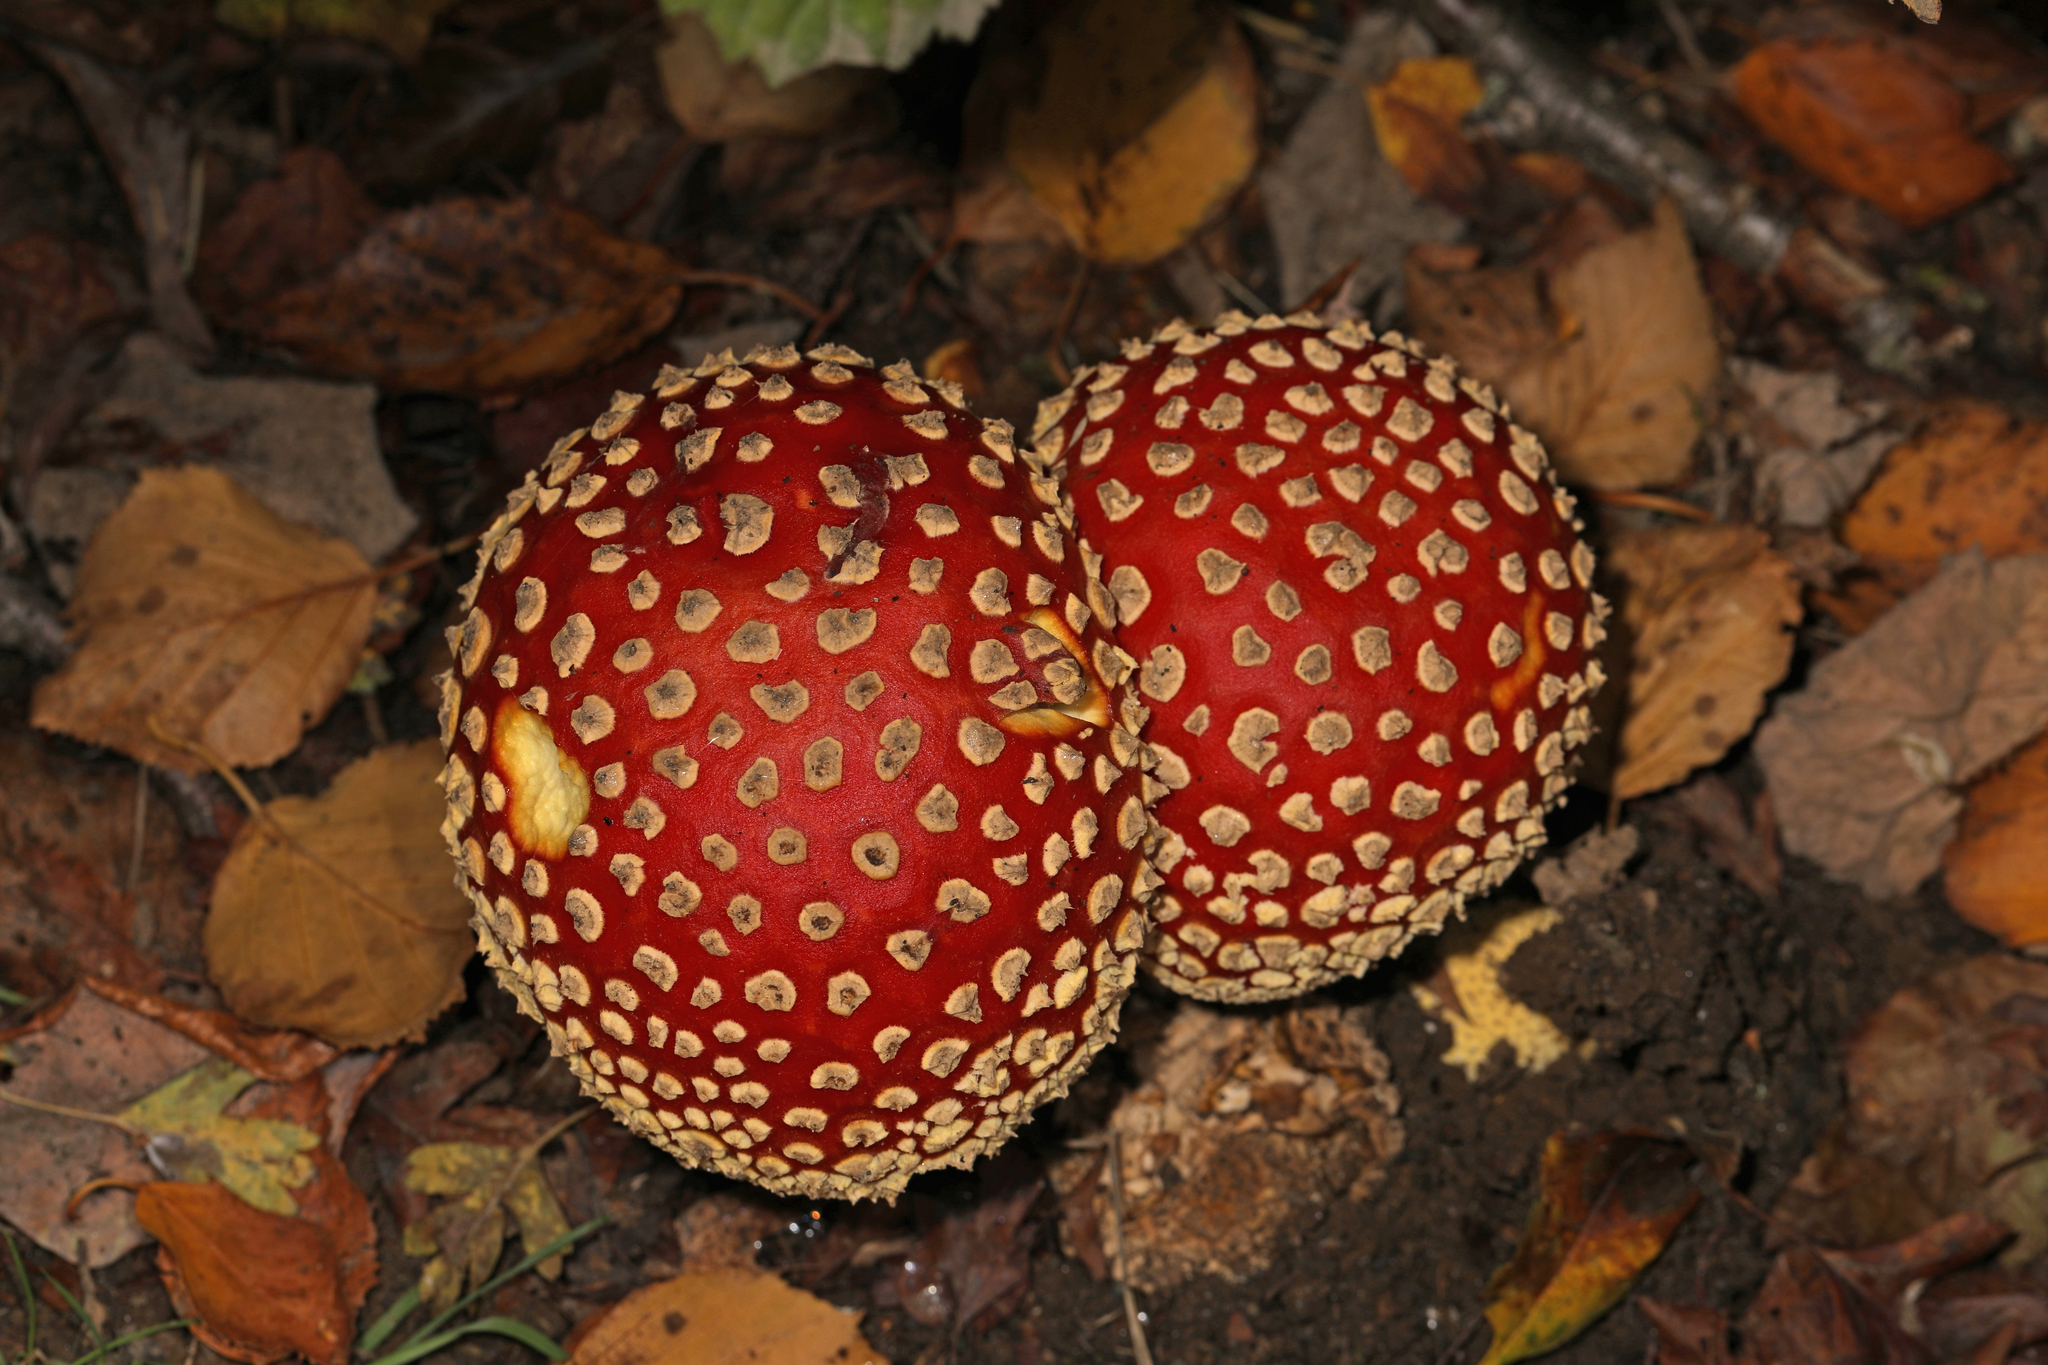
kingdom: Fungi
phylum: Basidiomycota
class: Agaricomycetes
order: Agaricales
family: Amanitaceae
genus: Amanita
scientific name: Amanita muscaria
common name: Fly agaric
